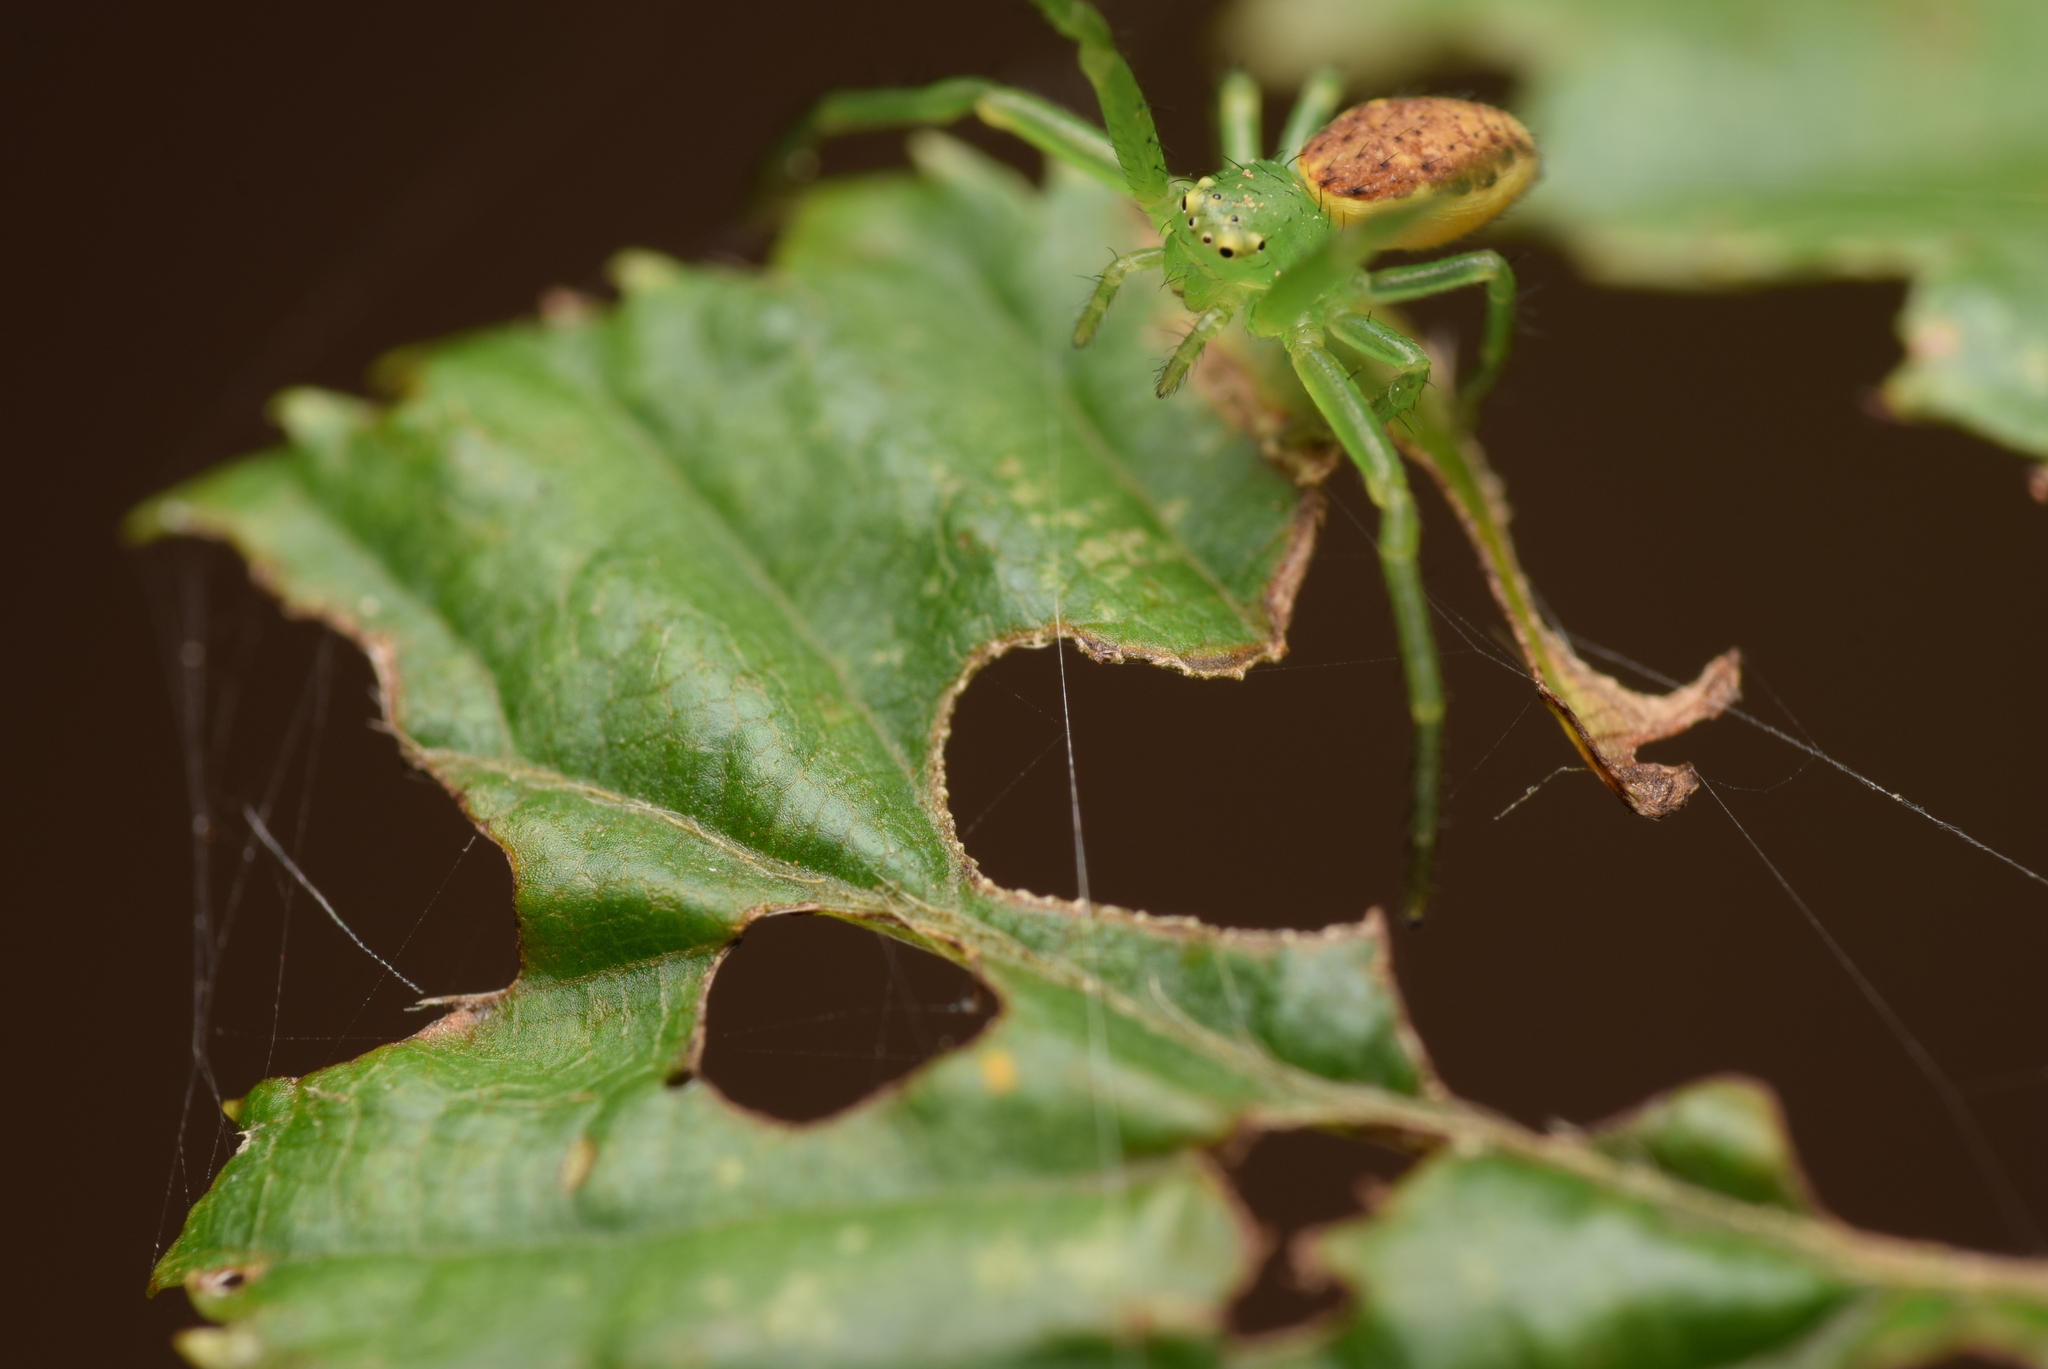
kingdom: Animalia
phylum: Arthropoda
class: Arachnida
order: Araneae
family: Thomisidae
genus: Diaea
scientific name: Diaea dorsata
